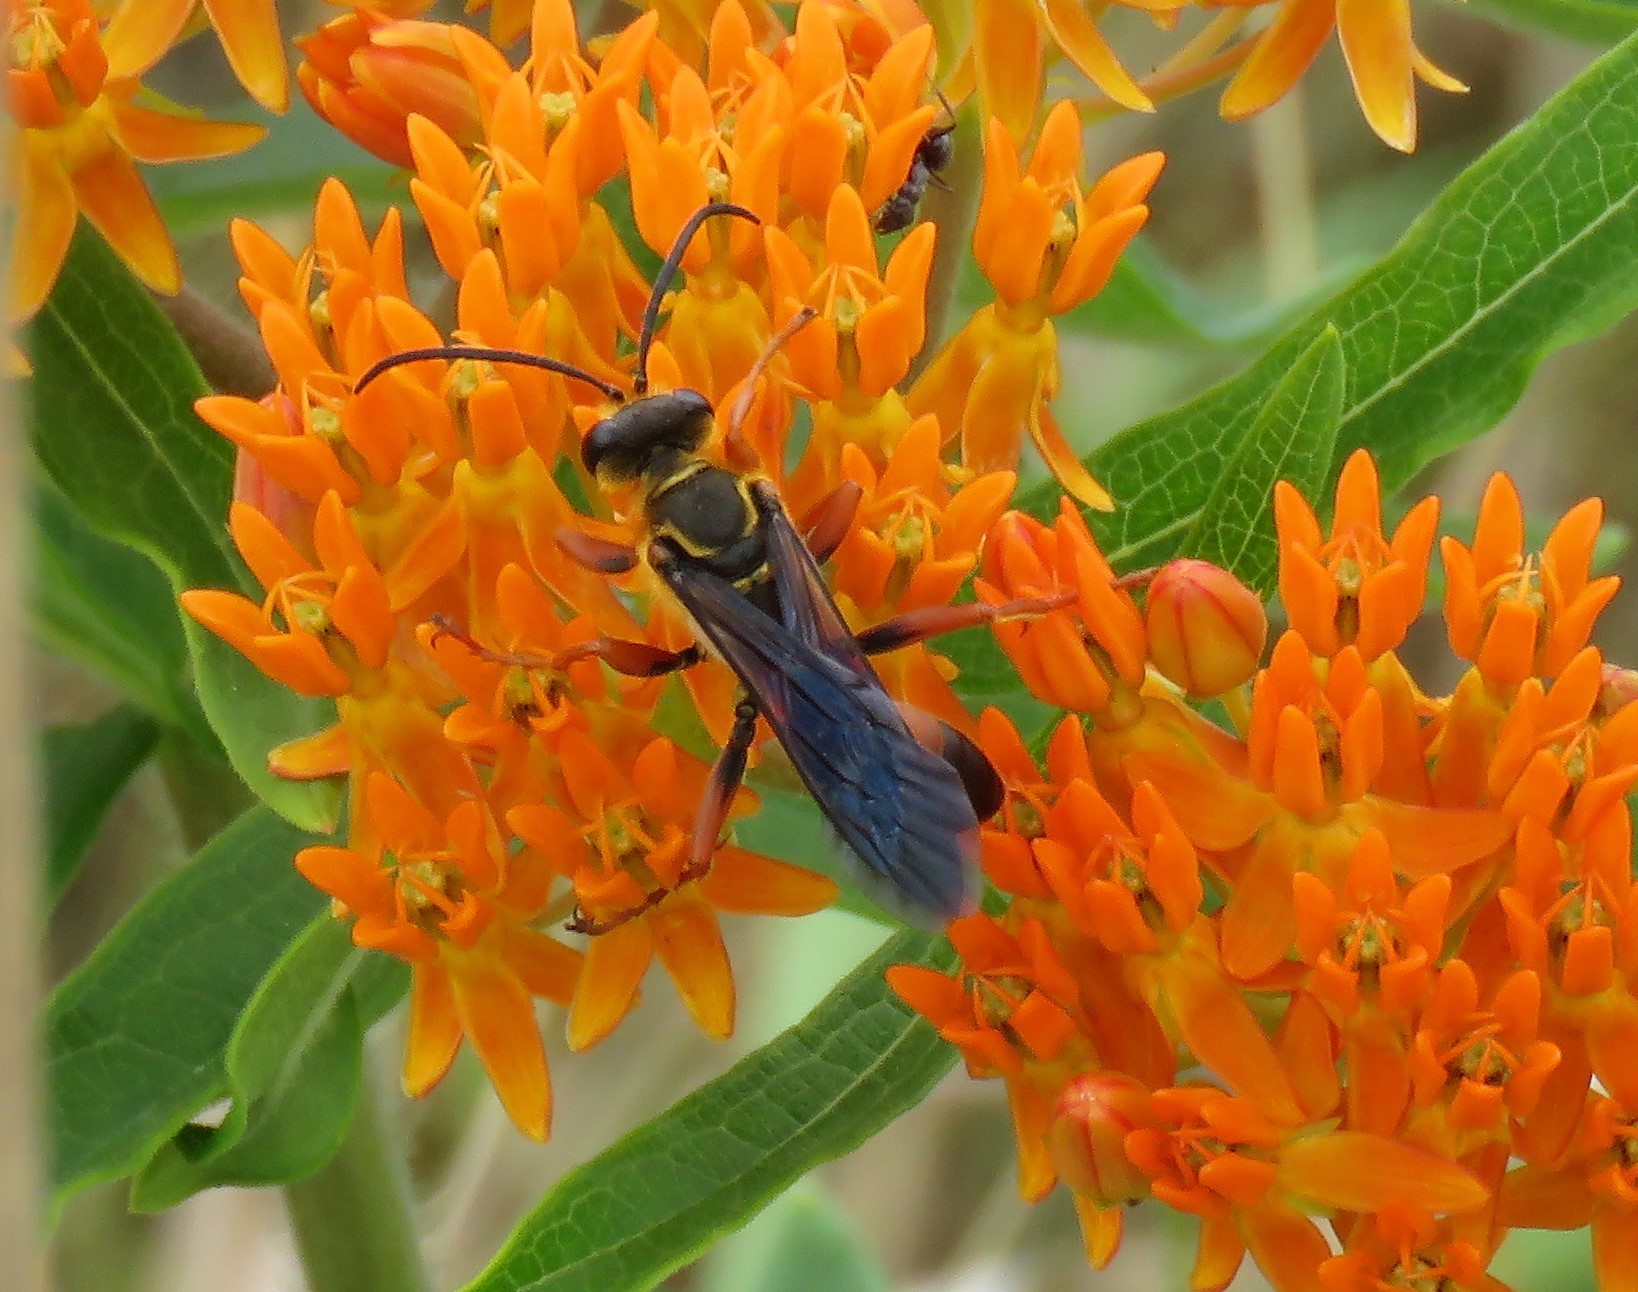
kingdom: Animalia
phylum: Arthropoda
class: Insecta
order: Hymenoptera
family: Sphecidae
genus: Sphex
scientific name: Sphex ichneumoneus
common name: Great golden digger wasp
